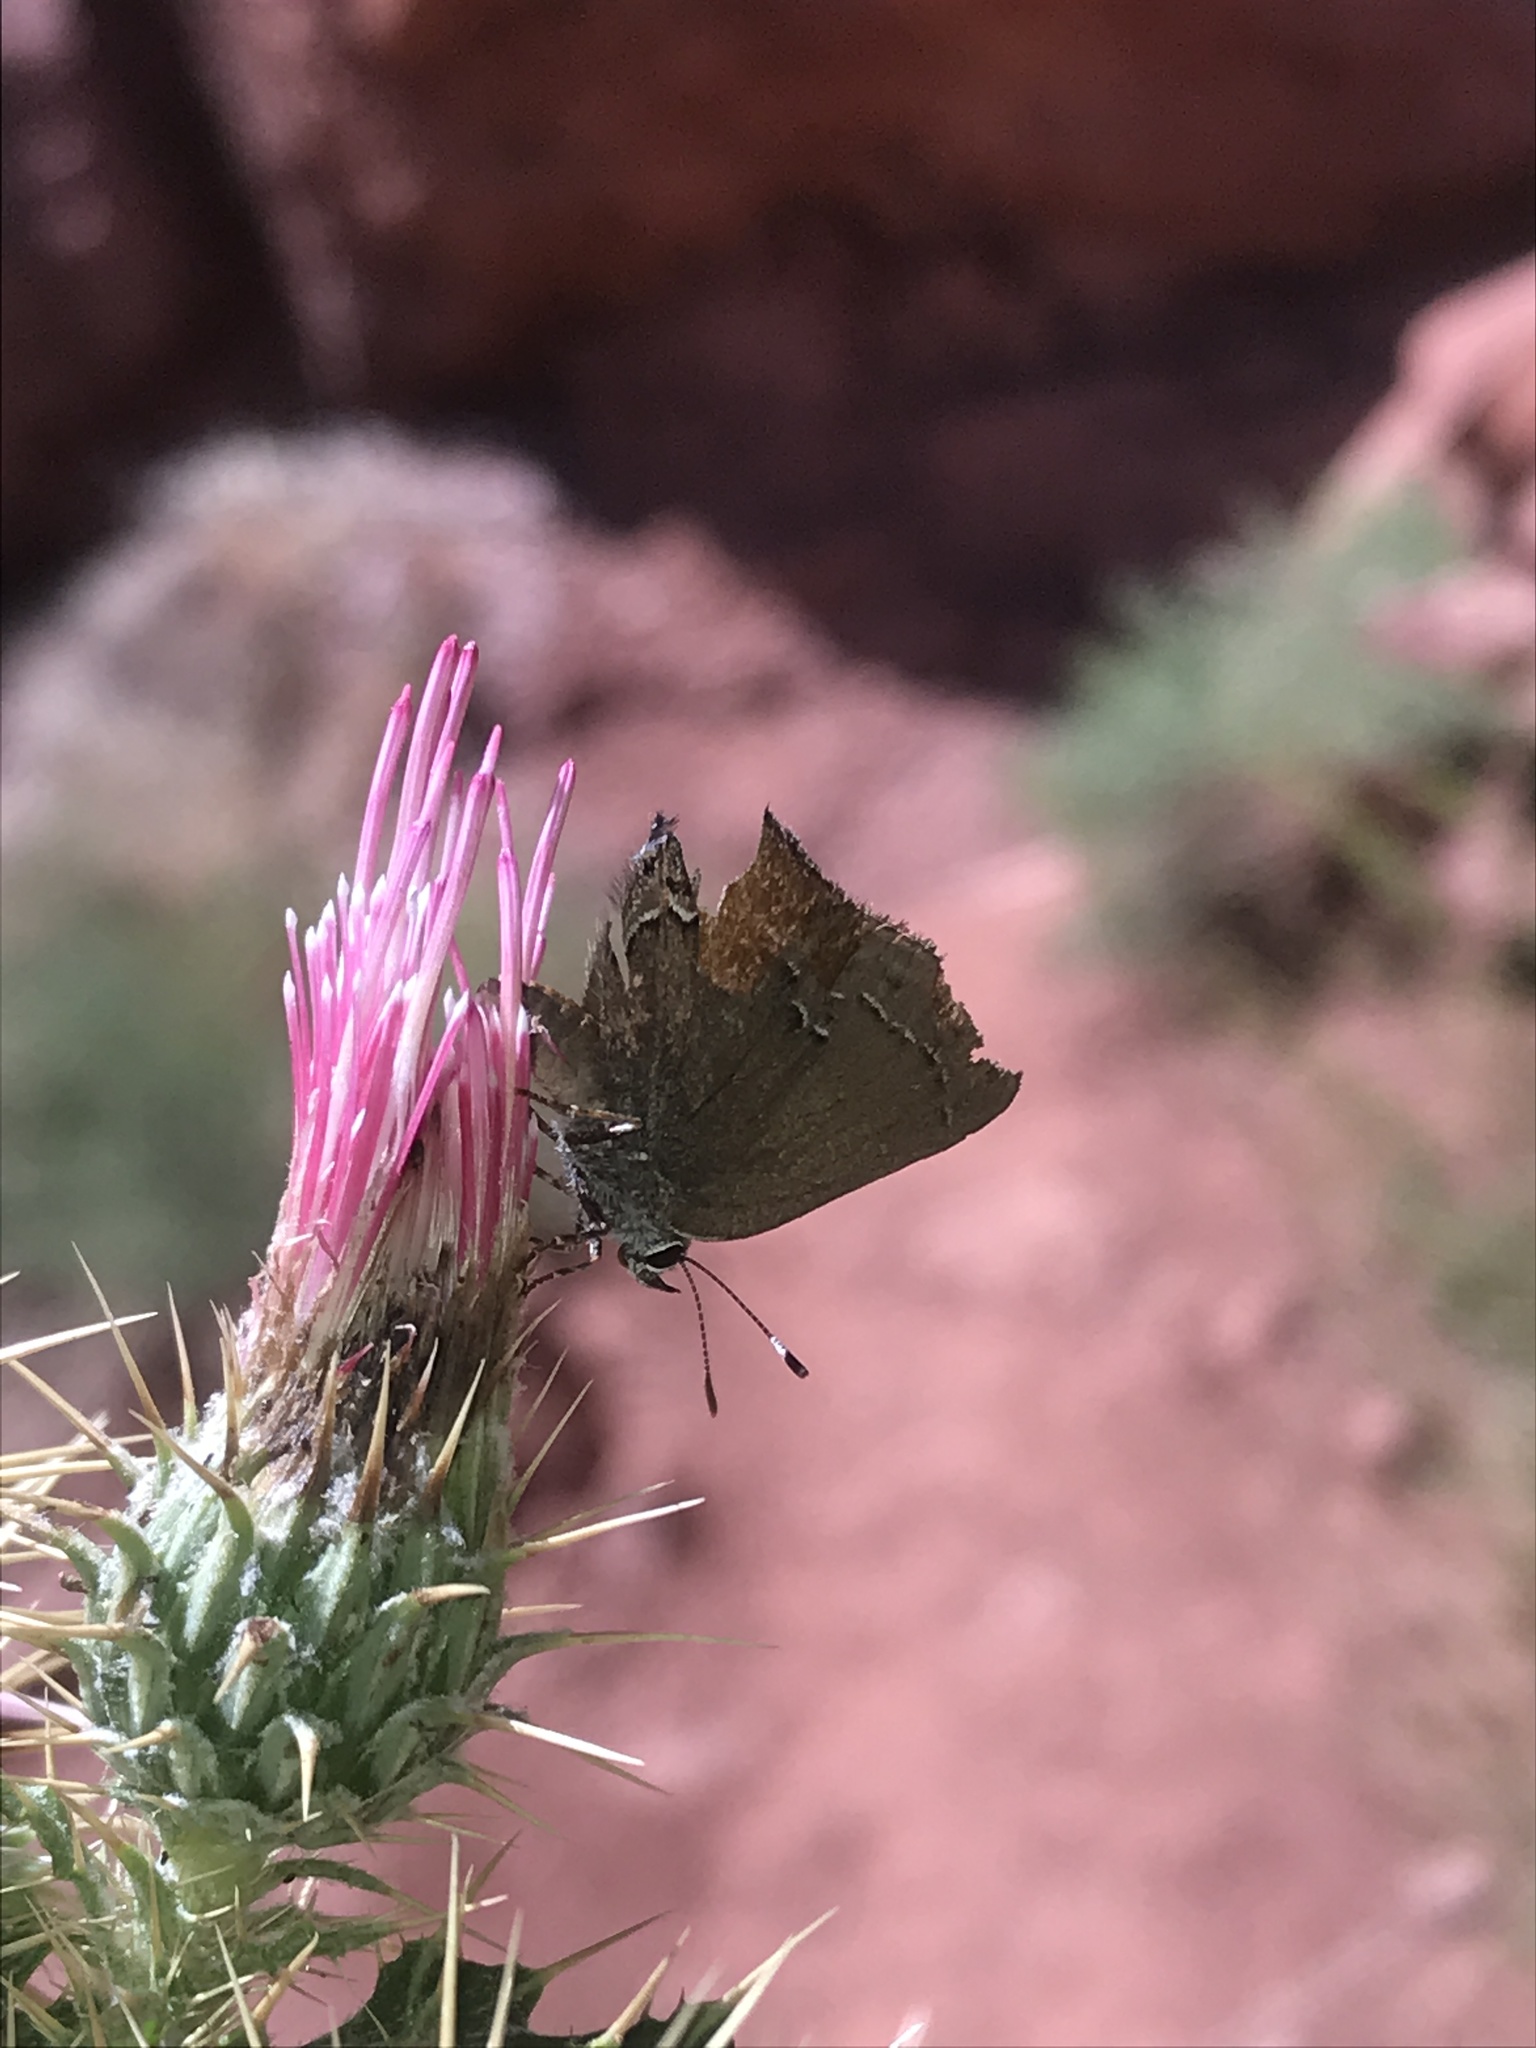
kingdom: Animalia
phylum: Arthropoda
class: Insecta
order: Lepidoptera
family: Lycaenidae
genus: Strymon
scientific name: Strymon saepium
